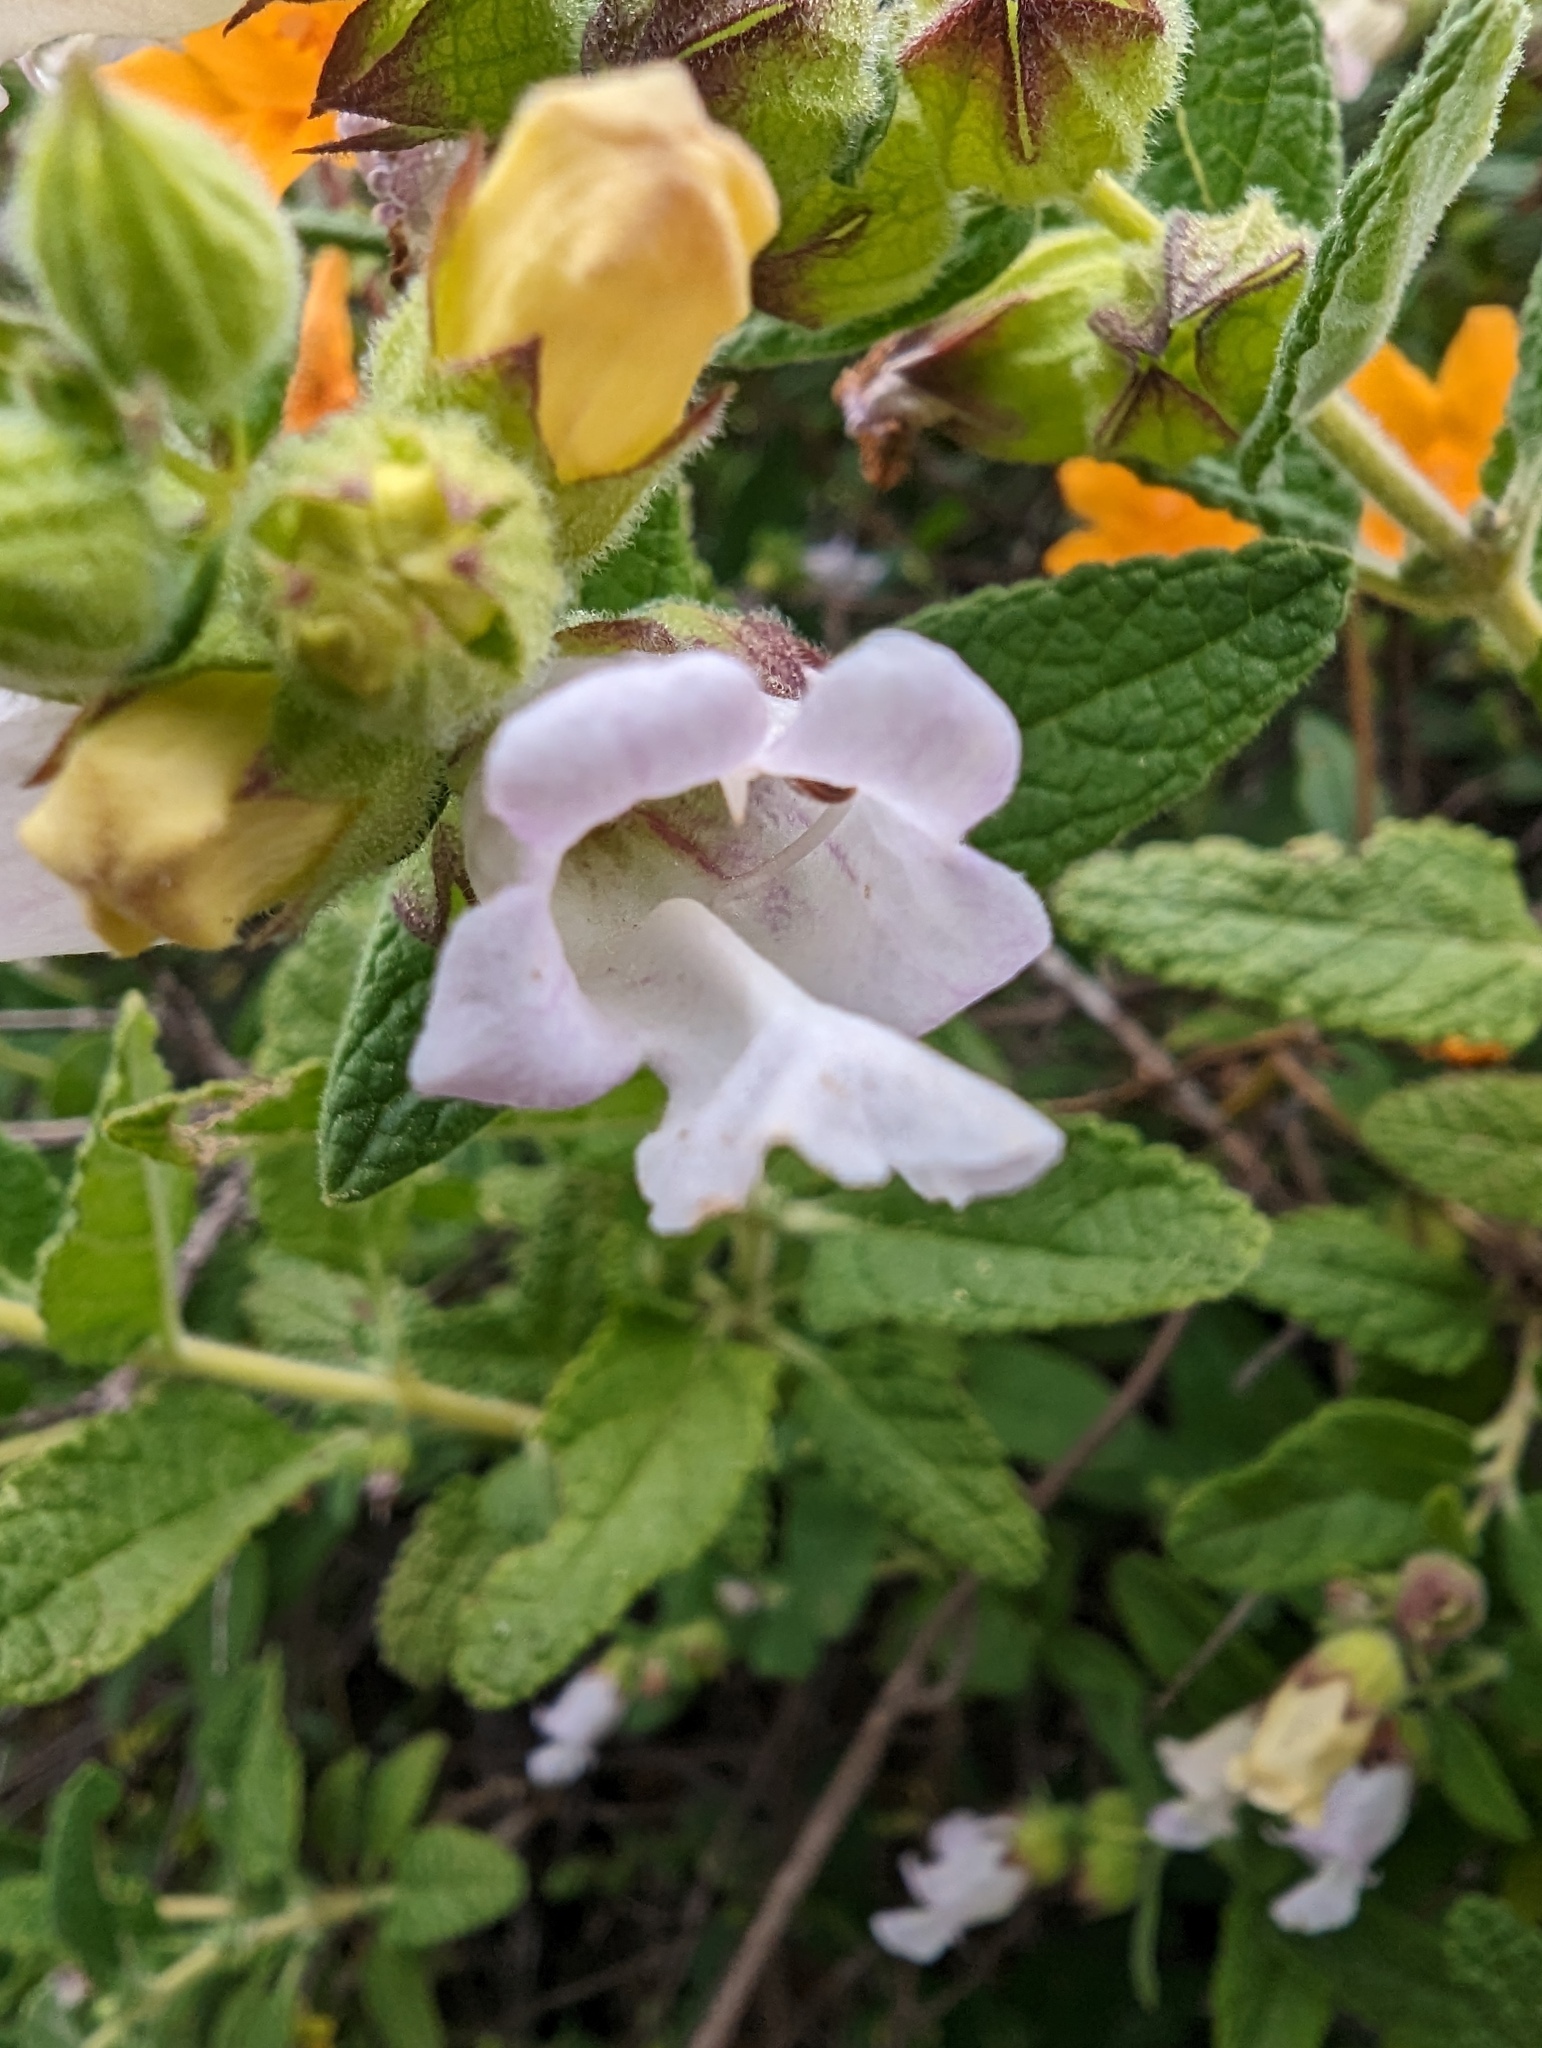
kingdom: Plantae
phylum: Tracheophyta
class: Magnoliopsida
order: Lamiales
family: Lamiaceae
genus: Lepechinia
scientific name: Lepechinia calycina
